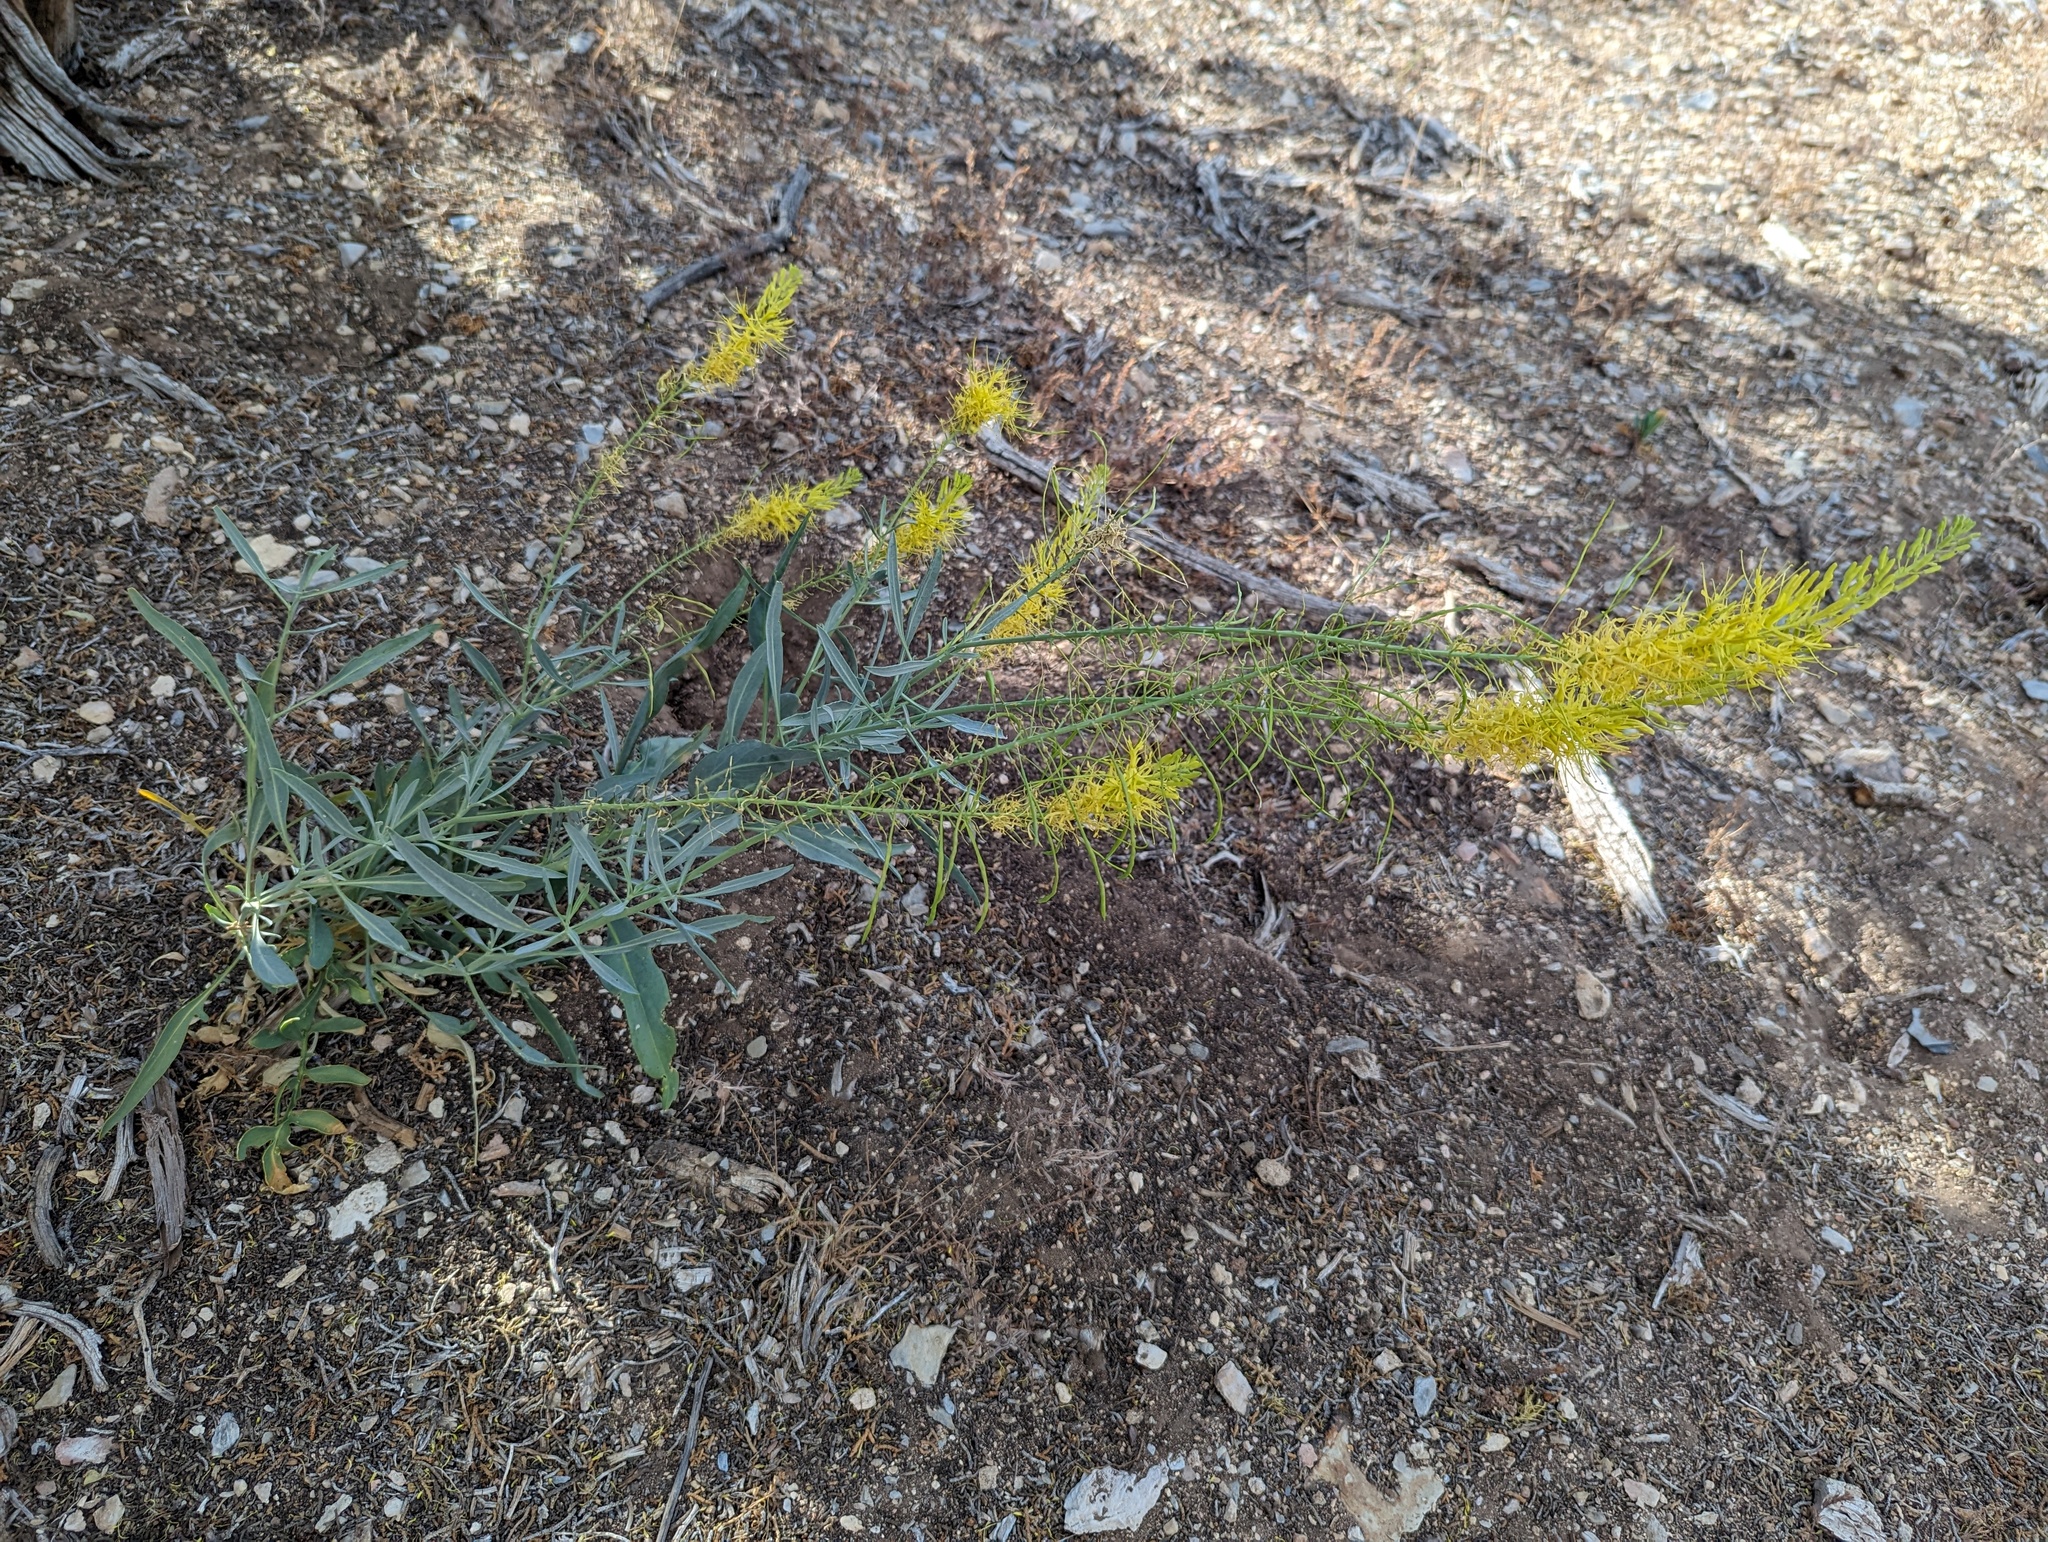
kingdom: Plantae
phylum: Tracheophyta
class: Magnoliopsida
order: Brassicales
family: Brassicaceae
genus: Stanleya
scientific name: Stanleya pinnata
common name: Prince's-plume
